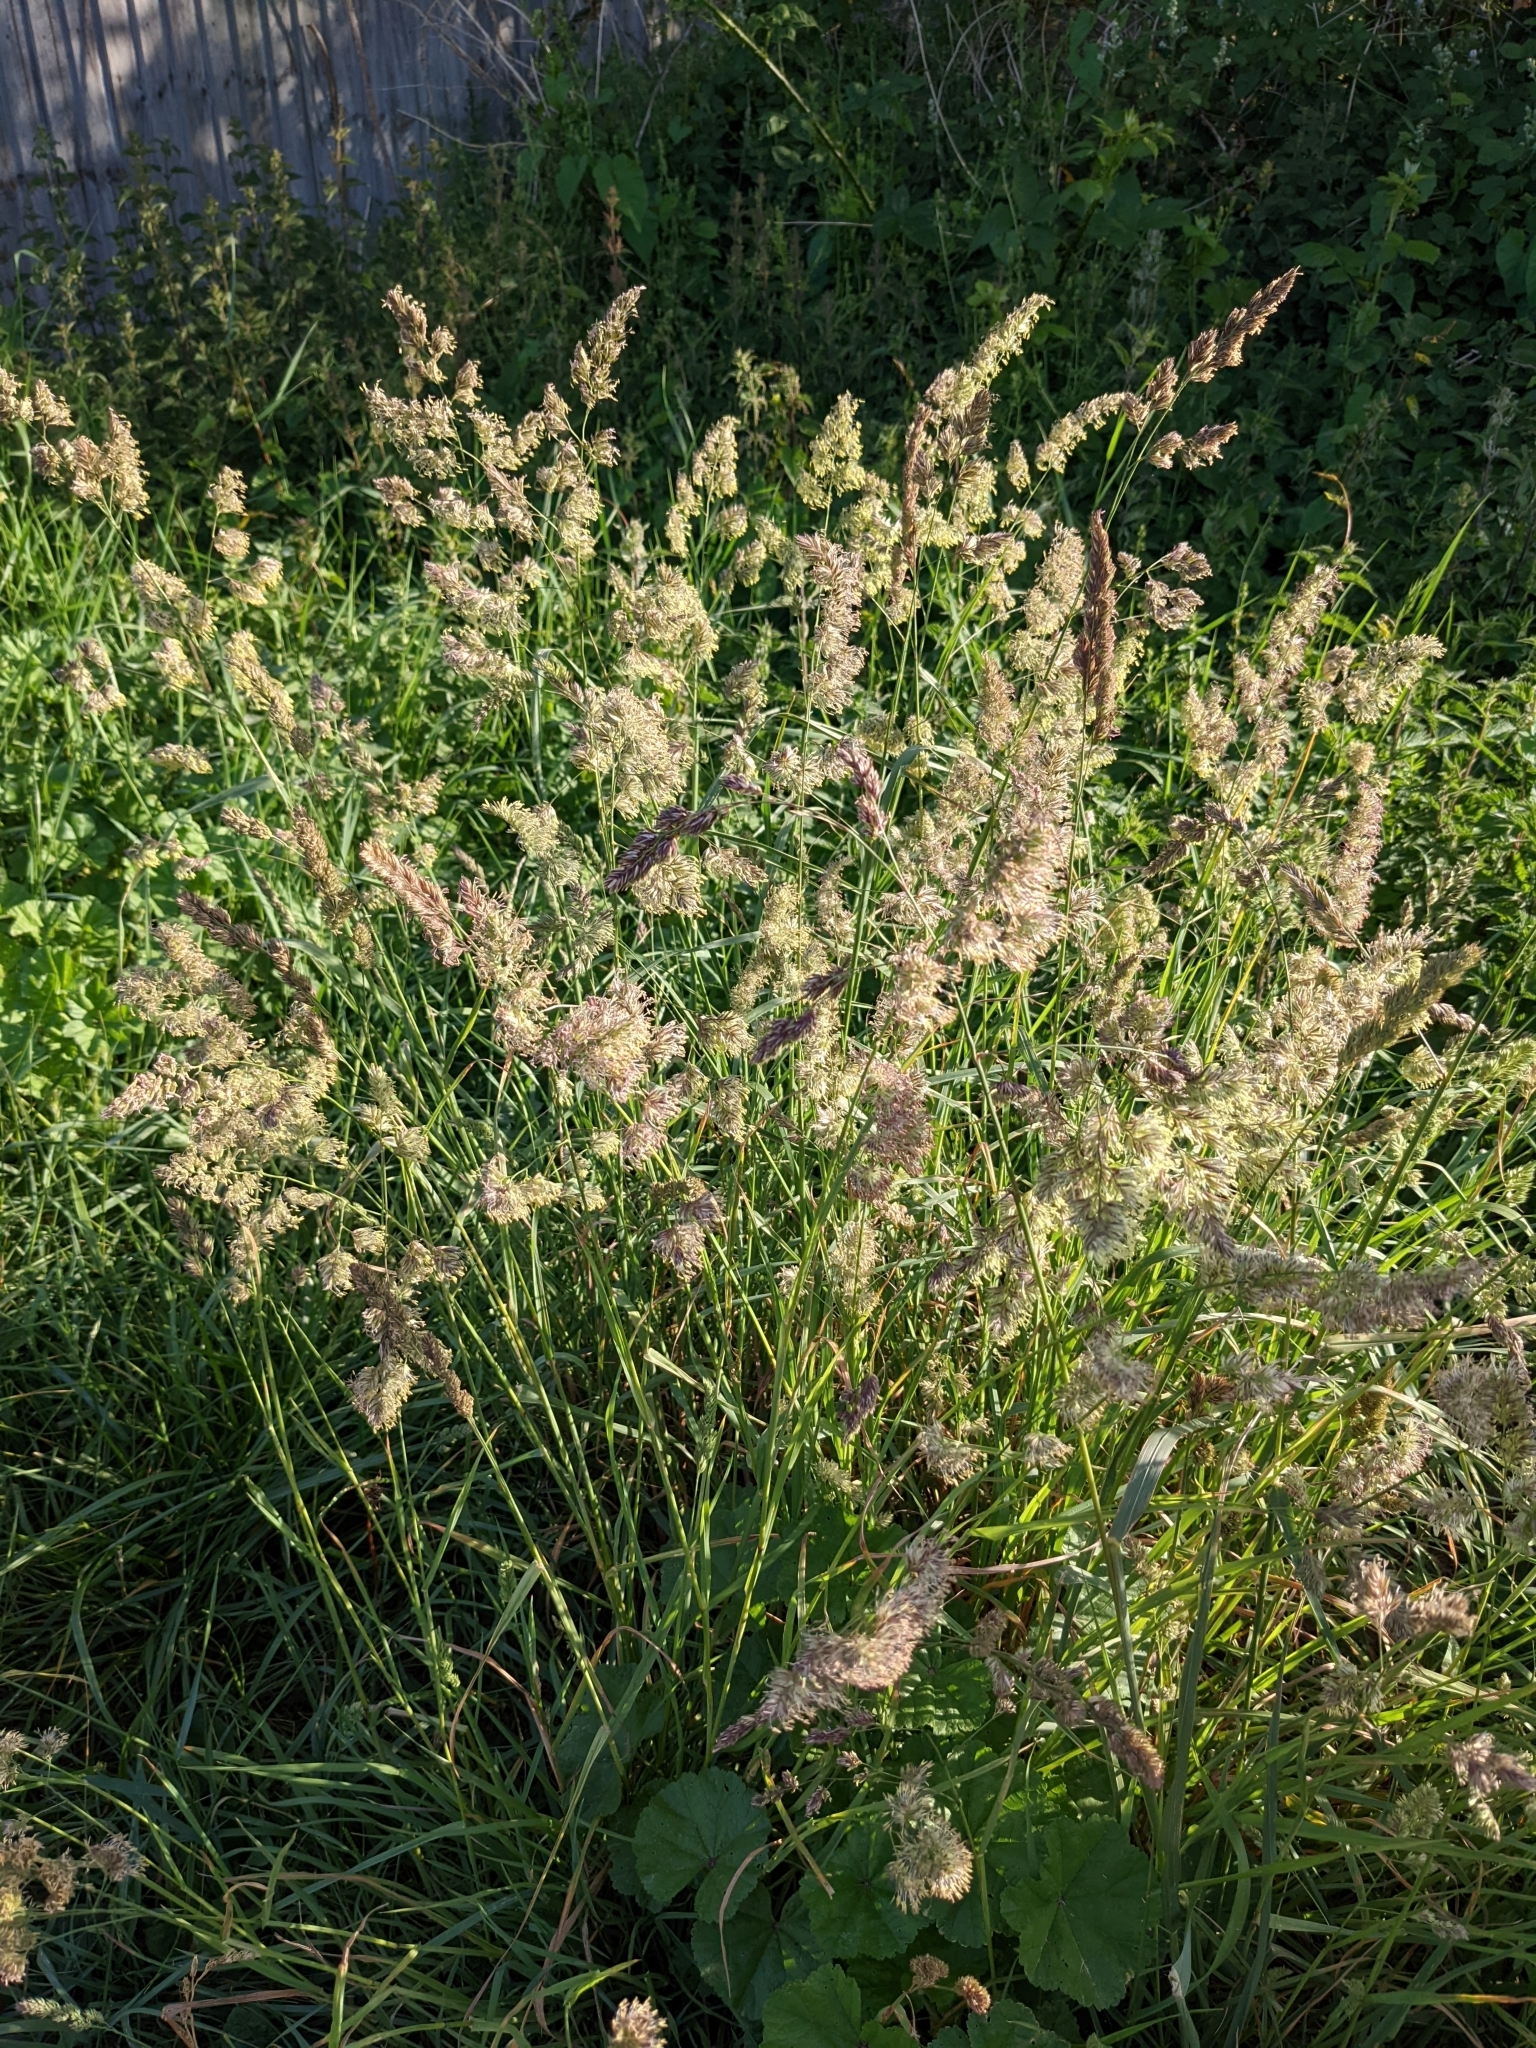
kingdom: Plantae
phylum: Tracheophyta
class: Liliopsida
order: Poales
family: Poaceae
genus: Dactylis
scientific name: Dactylis glomerata
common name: Orchardgrass
